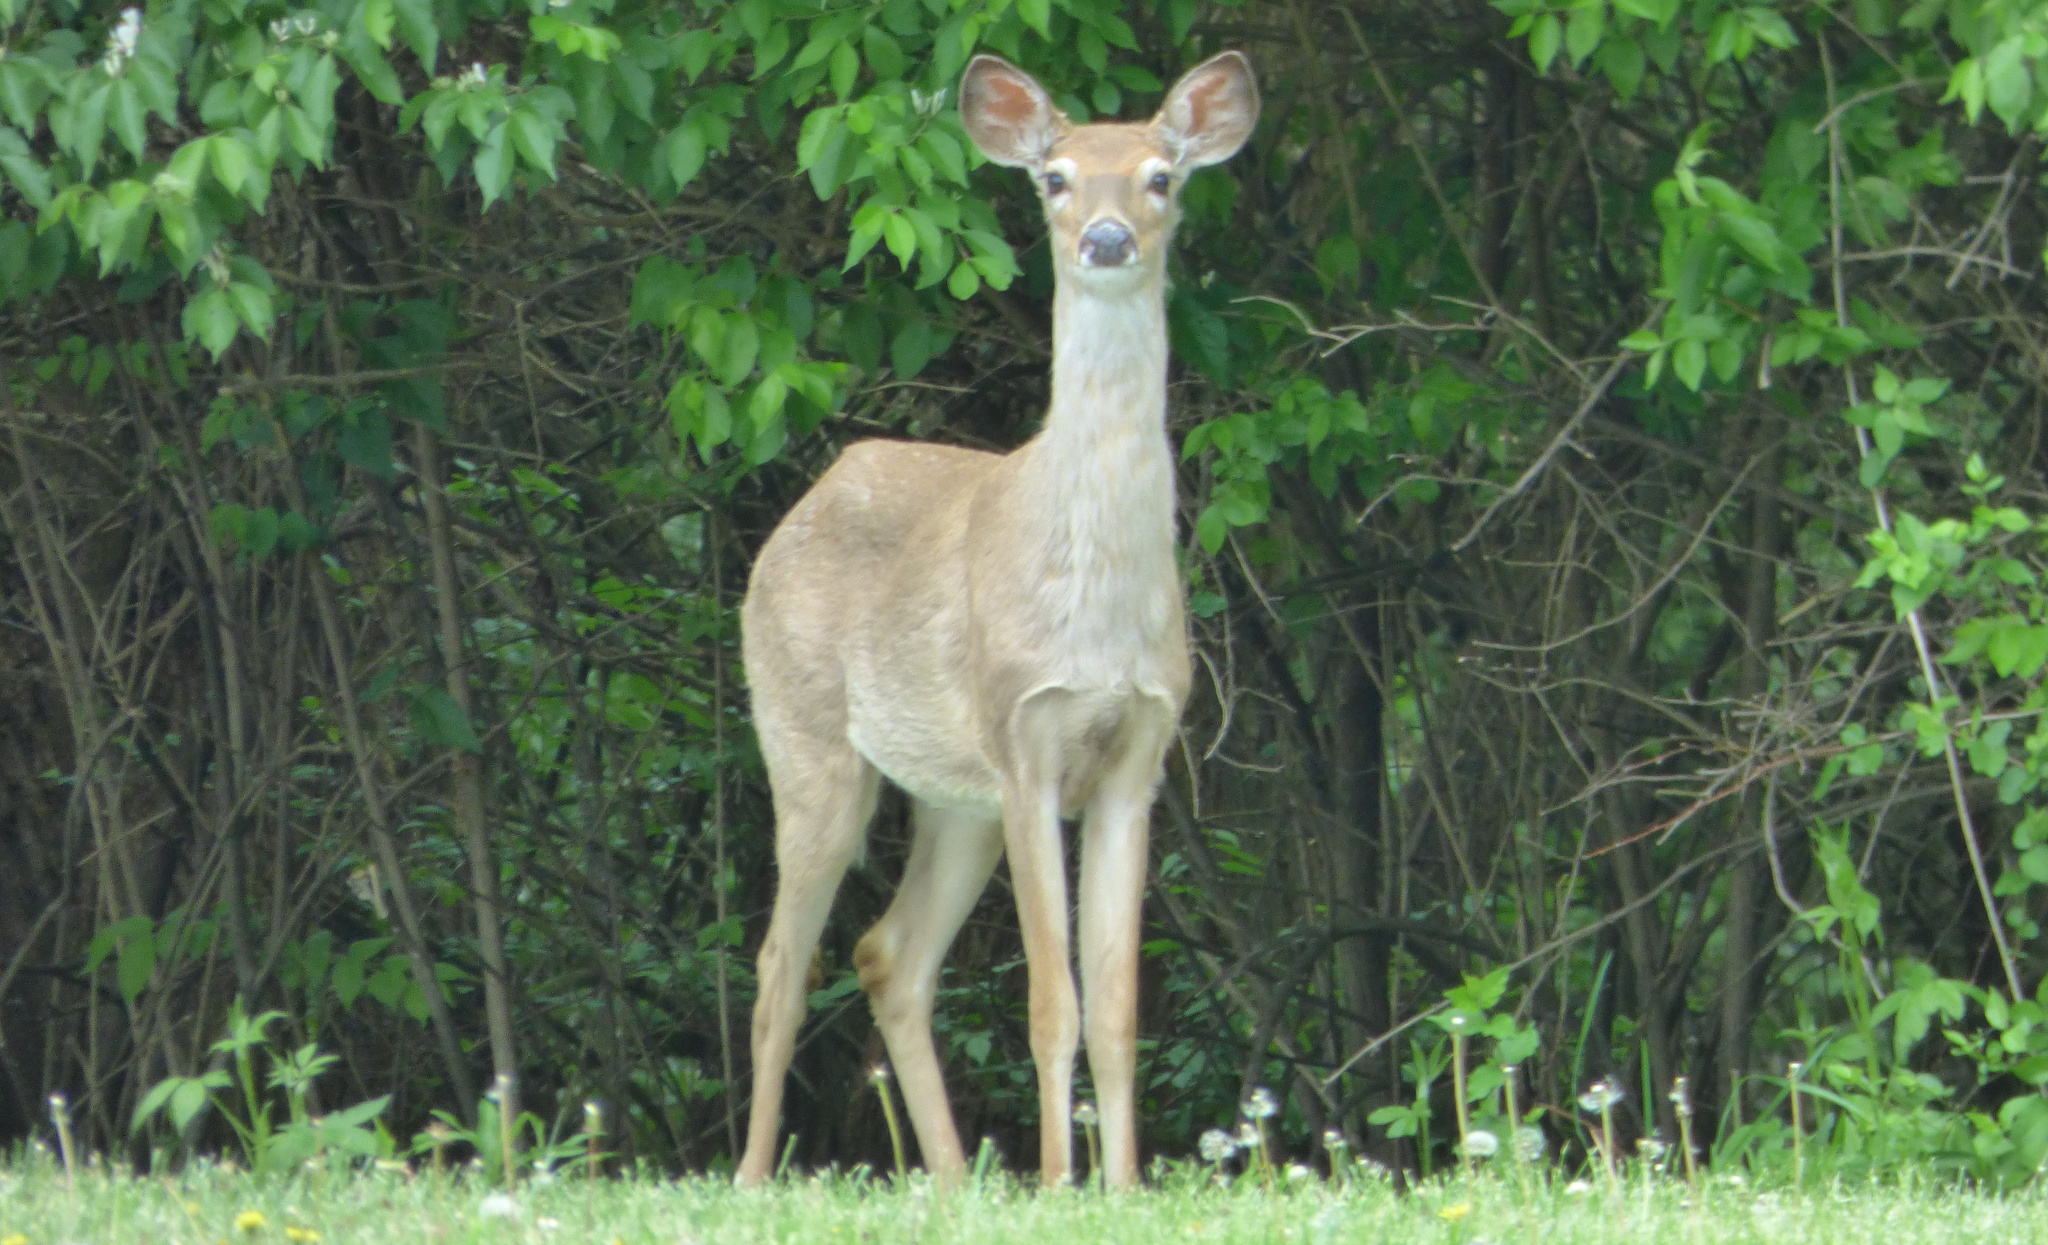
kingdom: Animalia
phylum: Chordata
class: Mammalia
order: Artiodactyla
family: Cervidae
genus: Odocoileus
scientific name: Odocoileus virginianus
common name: White-tailed deer
